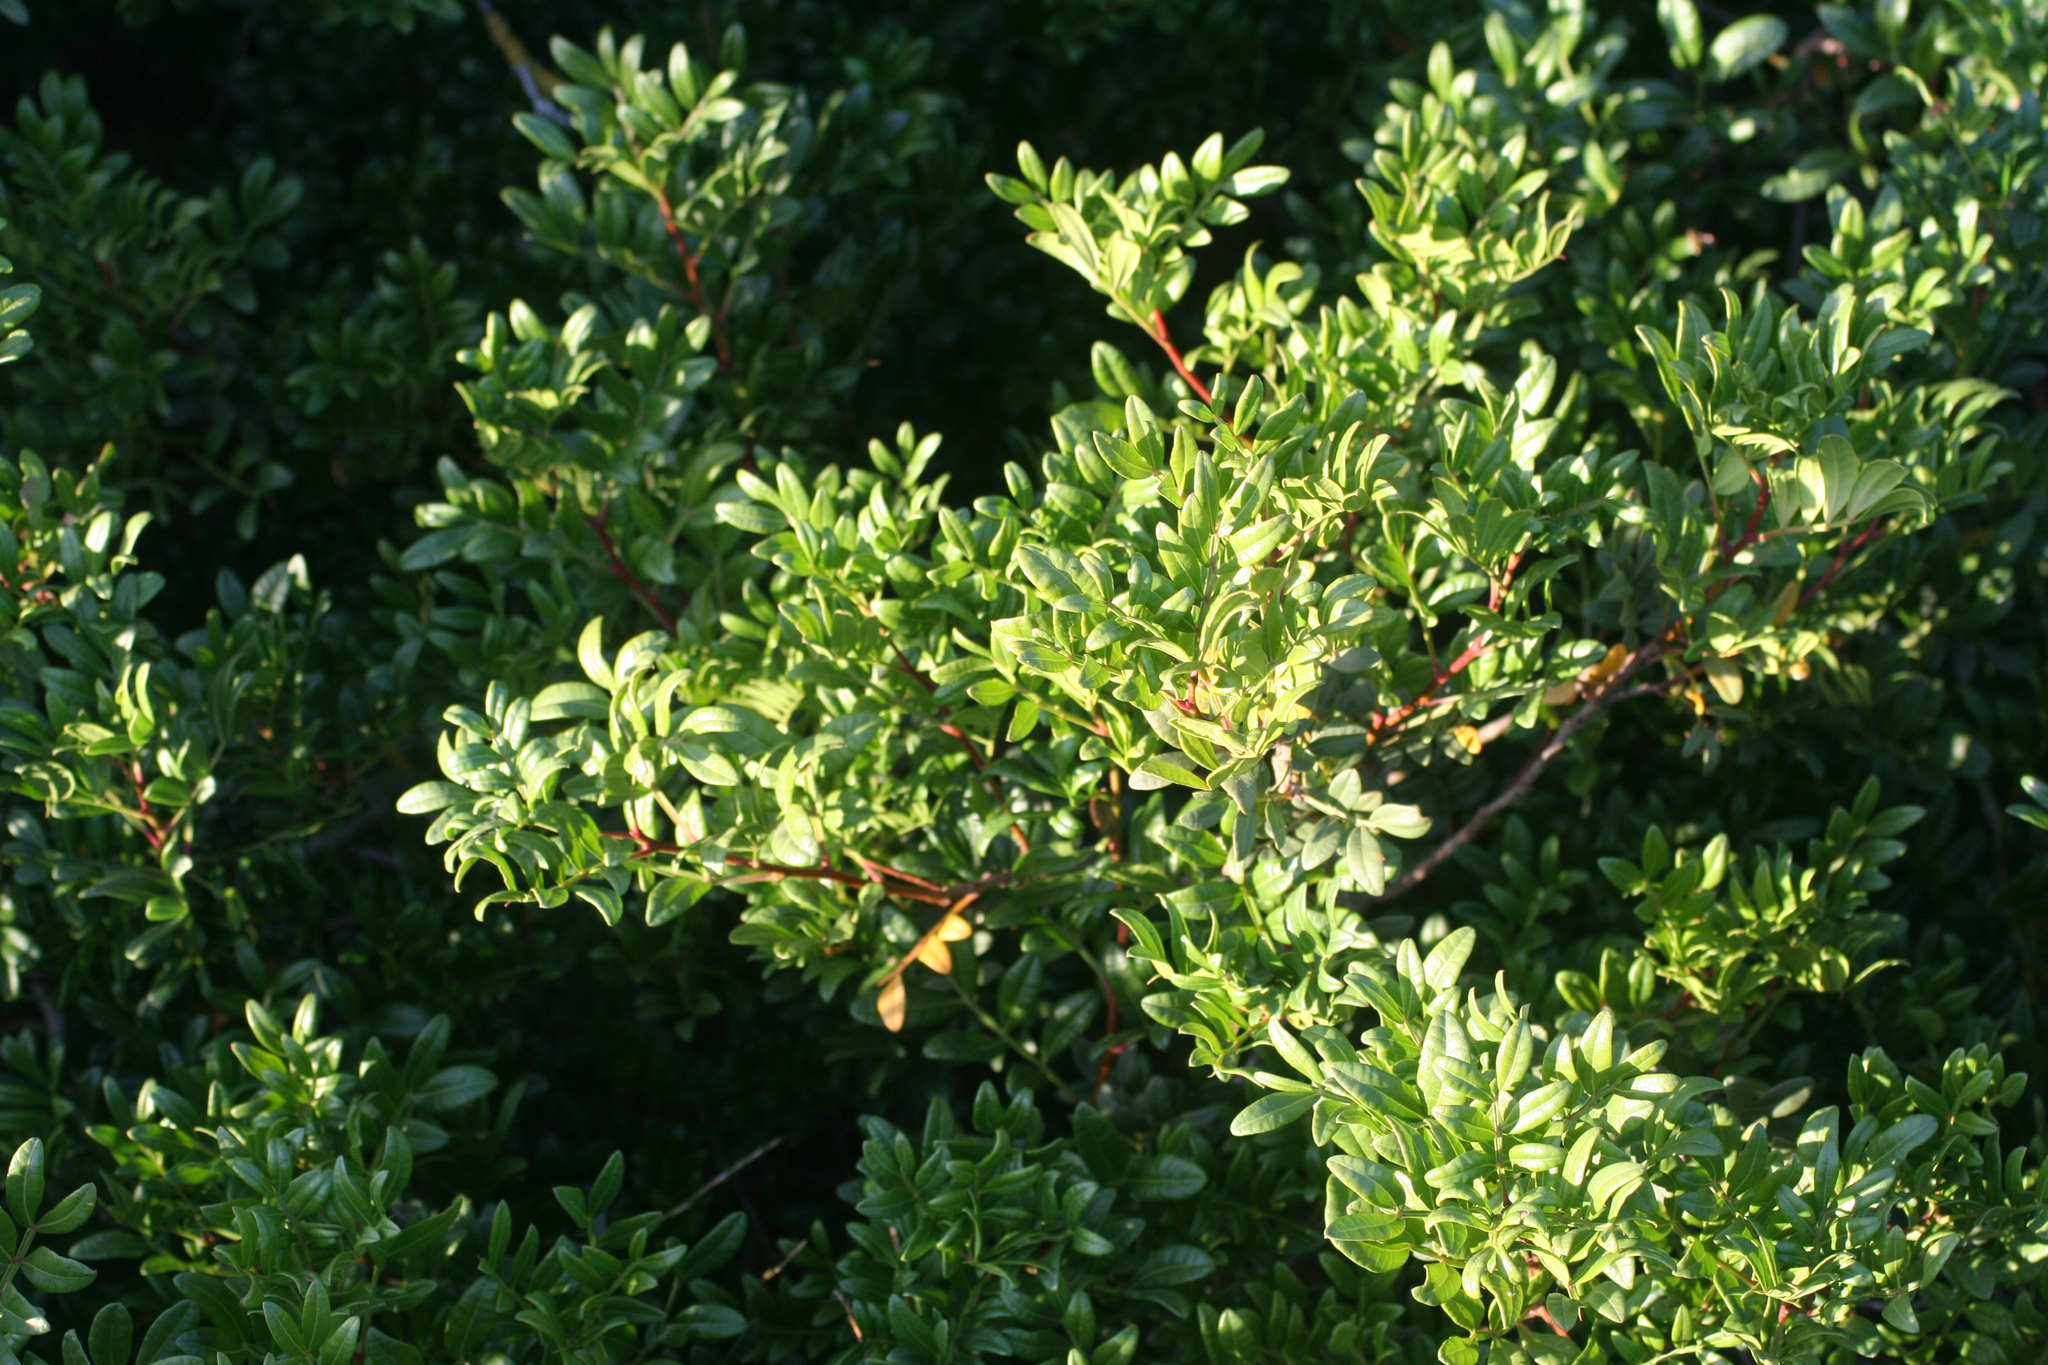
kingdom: Plantae
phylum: Tracheophyta
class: Magnoliopsida
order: Sapindales
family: Anacardiaceae
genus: Pistacia
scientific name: Pistacia lentiscus
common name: Lentisk
